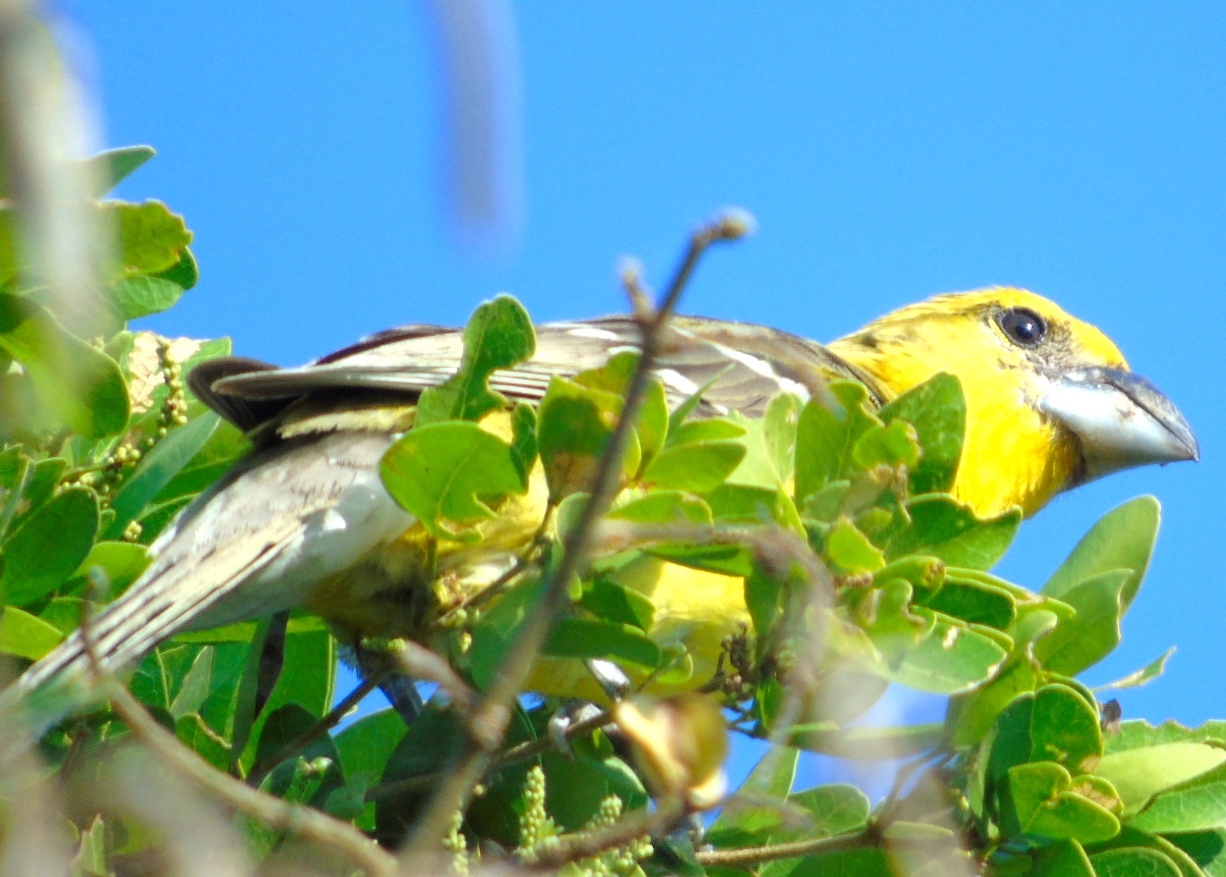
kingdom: Animalia
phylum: Chordata
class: Aves
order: Passeriformes
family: Cardinalidae
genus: Pheucticus
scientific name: Pheucticus chrysopeplus
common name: Yellow grosbeak
